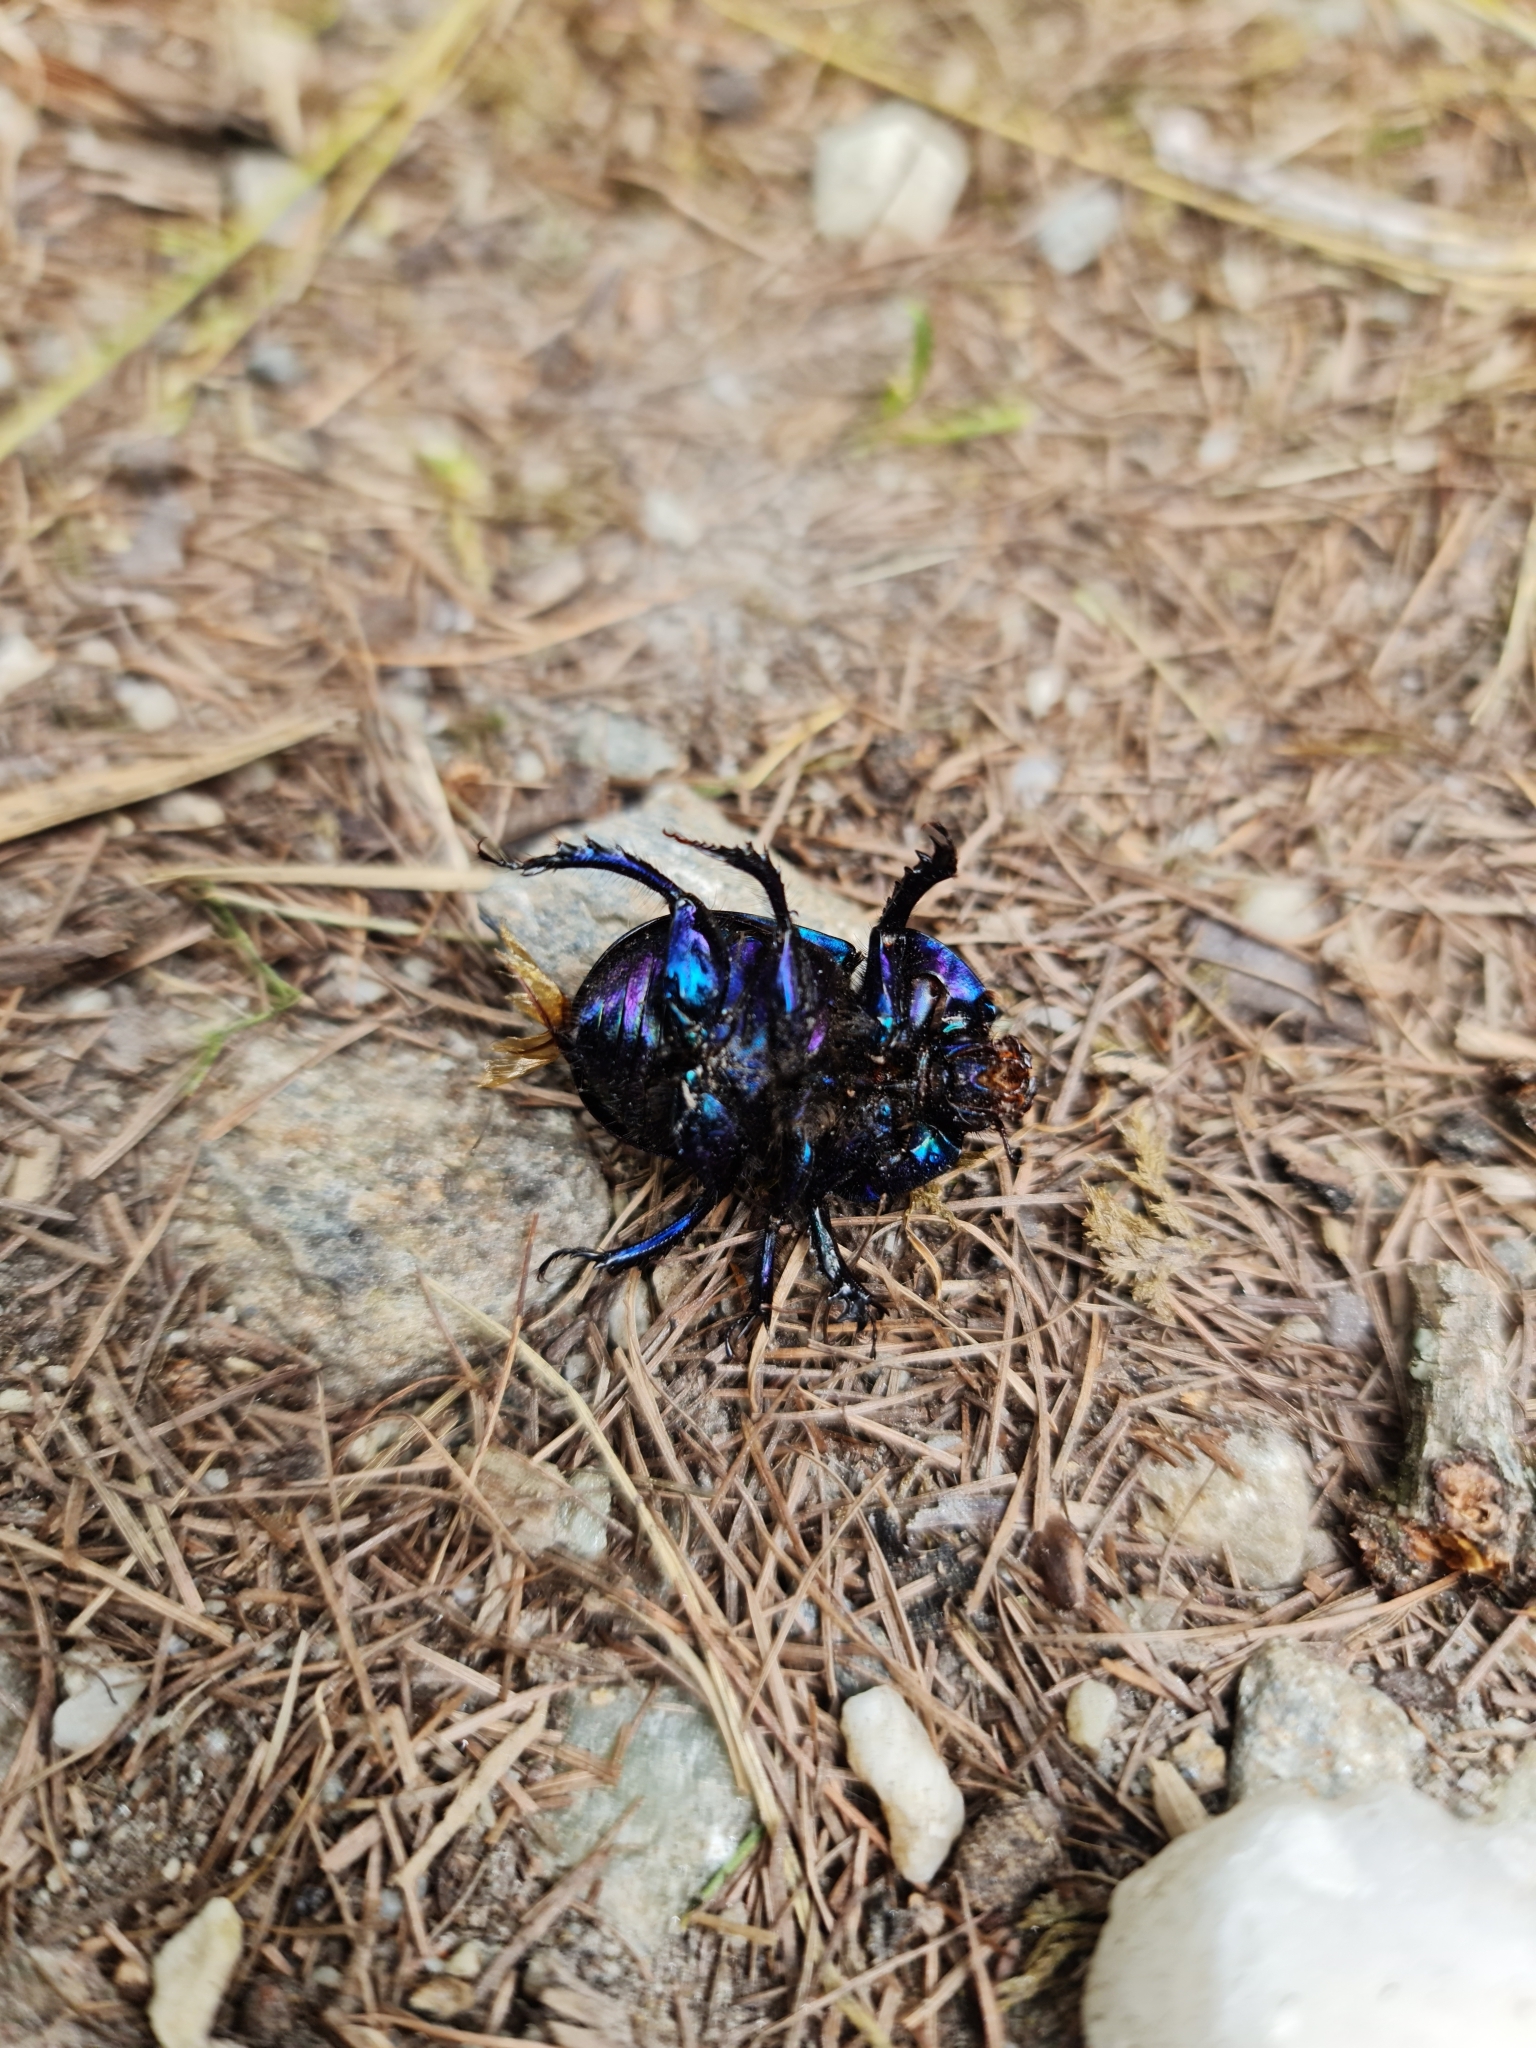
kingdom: Animalia
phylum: Arthropoda
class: Insecta
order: Coleoptera
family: Geotrupidae
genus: Geotrupes
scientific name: Geotrupes stercorarius
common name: Earth-boring dung beetle
